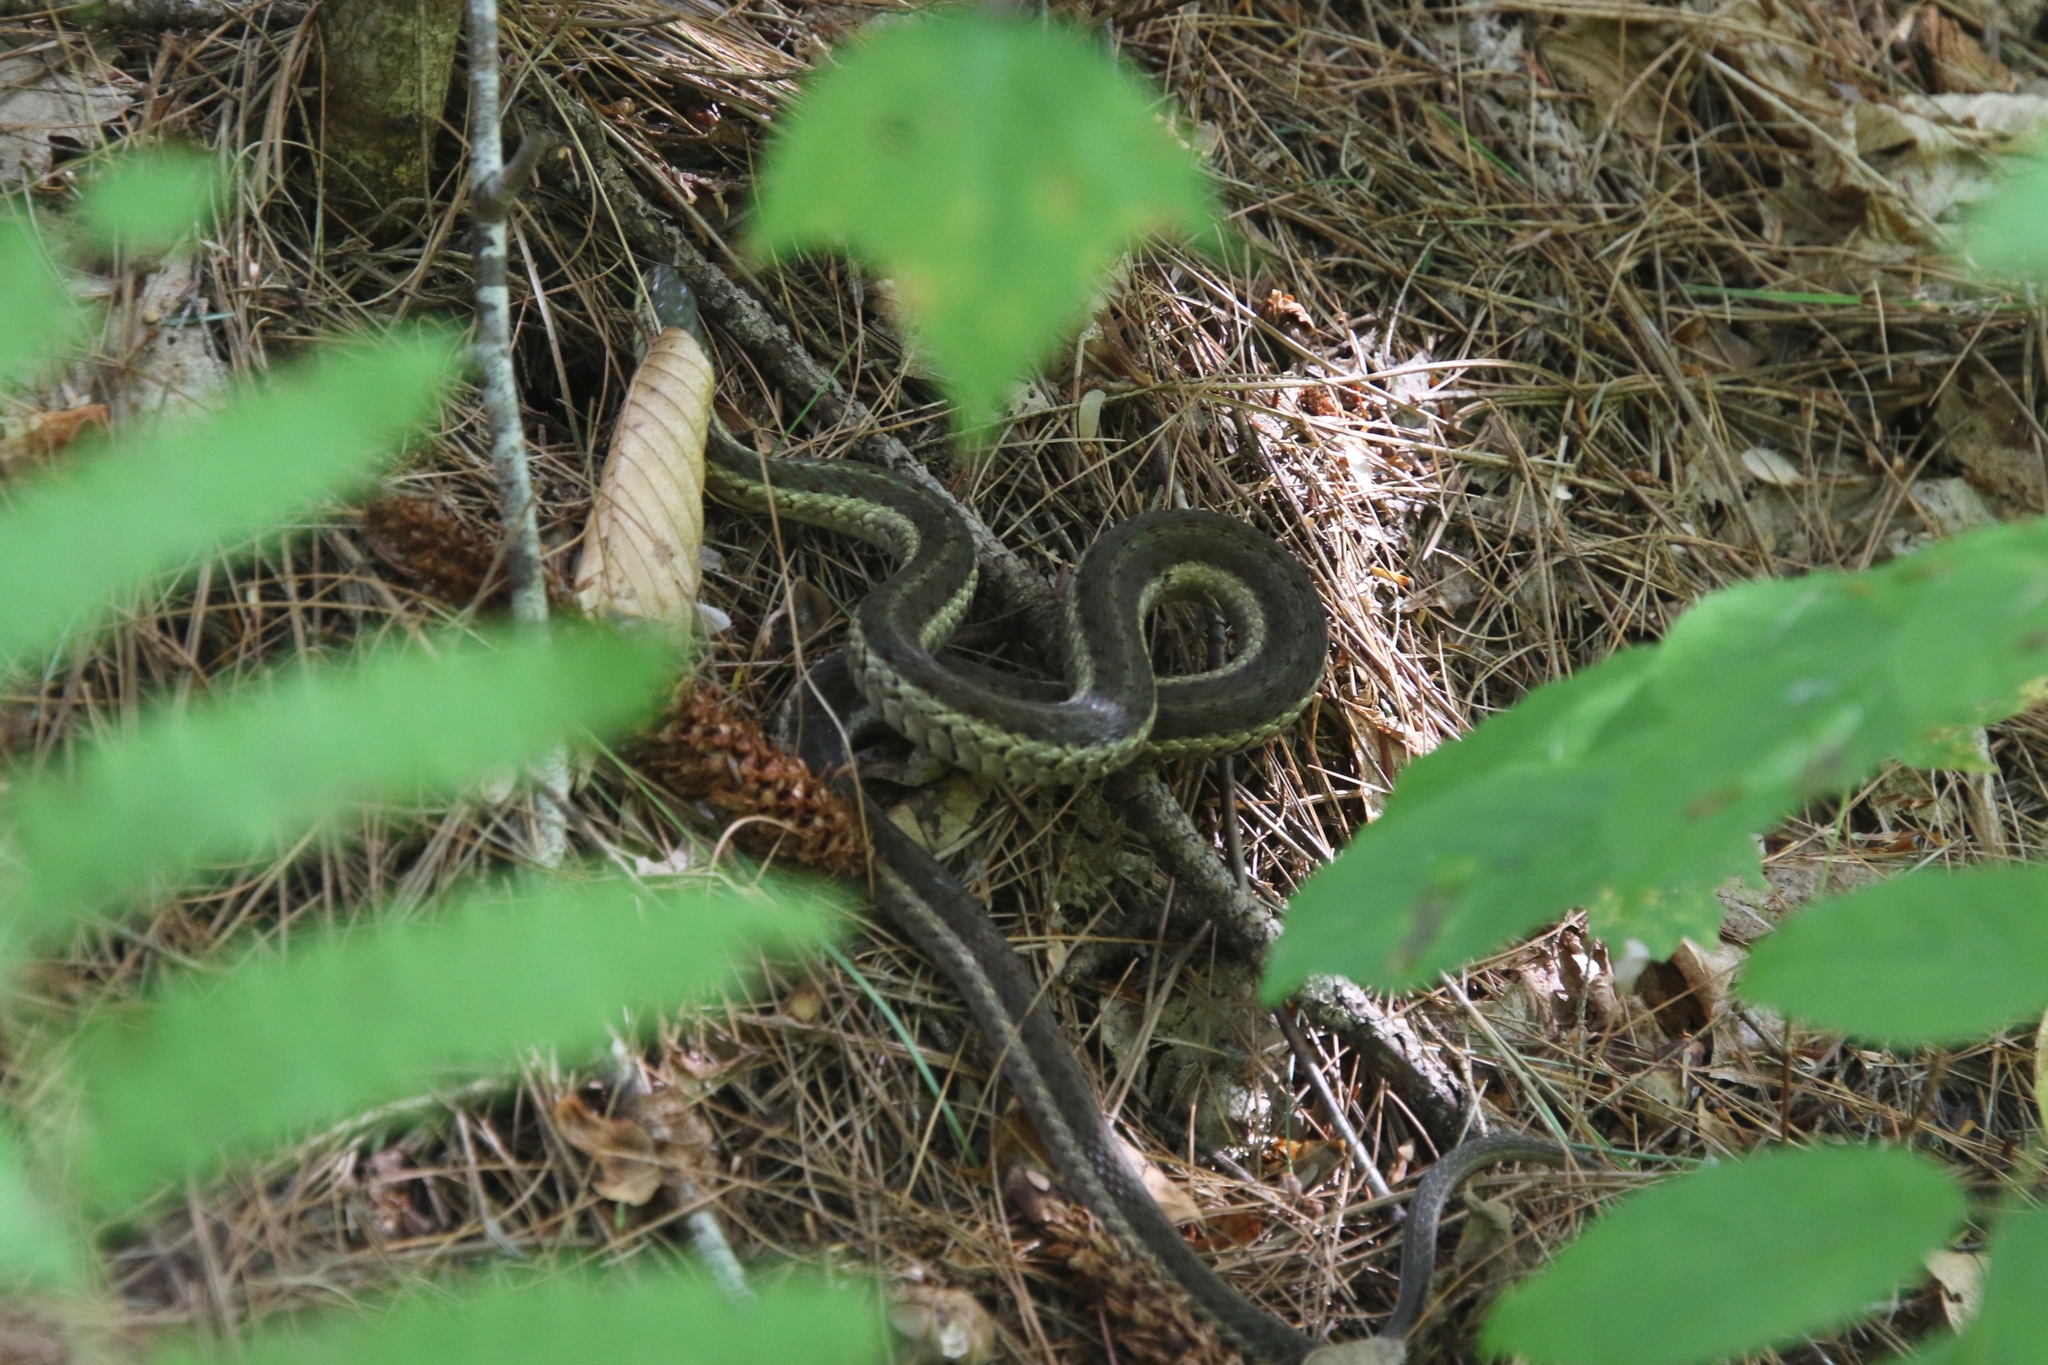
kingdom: Animalia
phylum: Chordata
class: Squamata
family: Colubridae
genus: Thamnophis
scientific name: Thamnophis sirtalis
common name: Common garter snake
